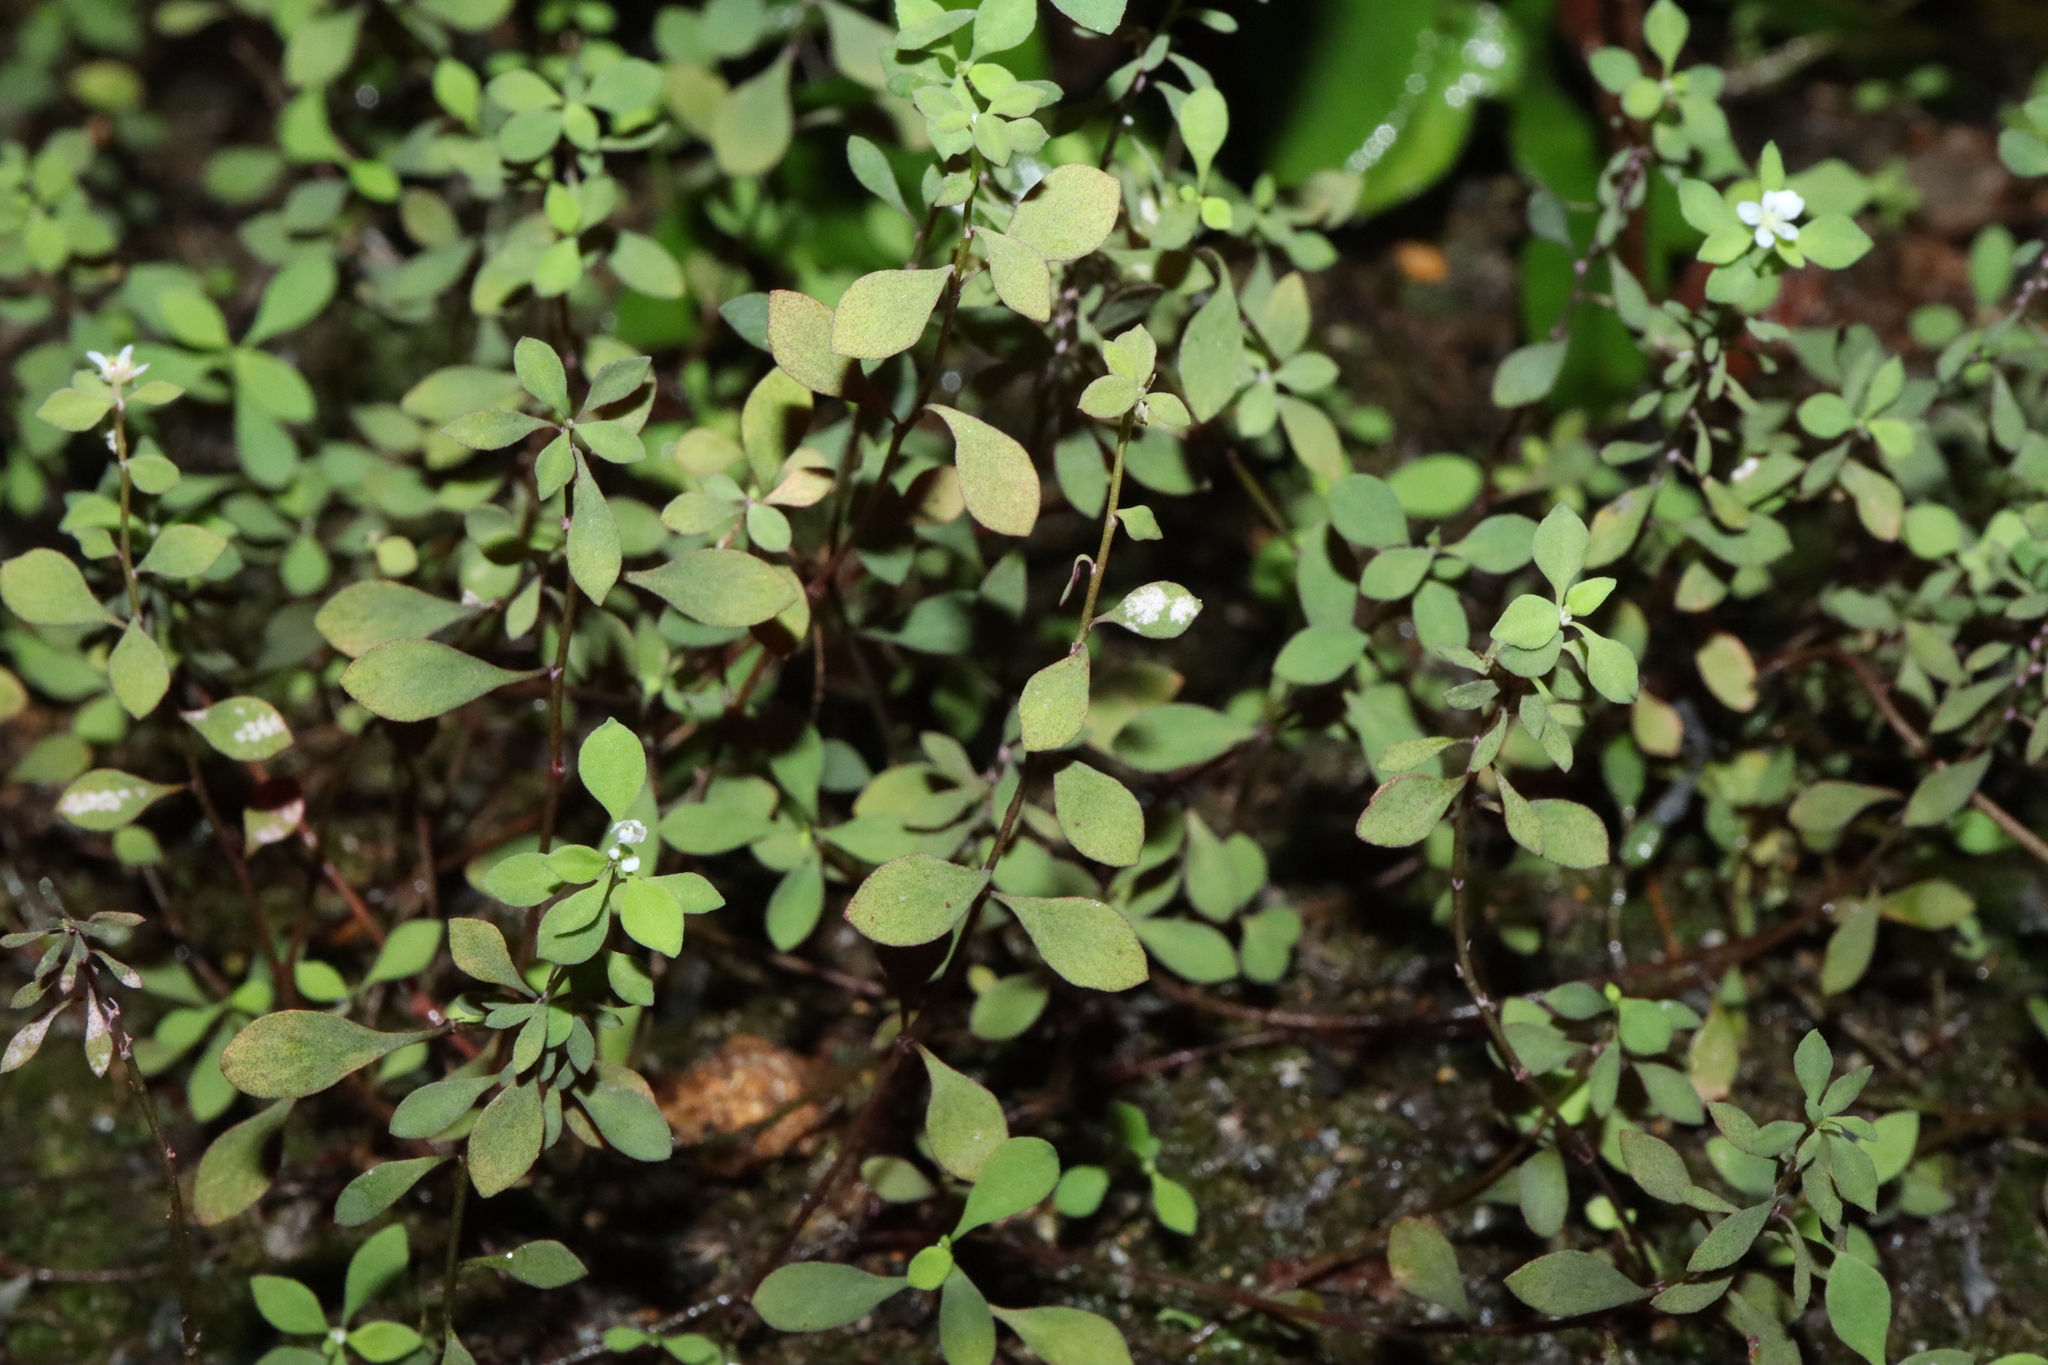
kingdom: Plantae
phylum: Tracheophyta
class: Magnoliopsida
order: Malpighiales
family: Phyllanthaceae
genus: Poranthera
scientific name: Poranthera microphylla
